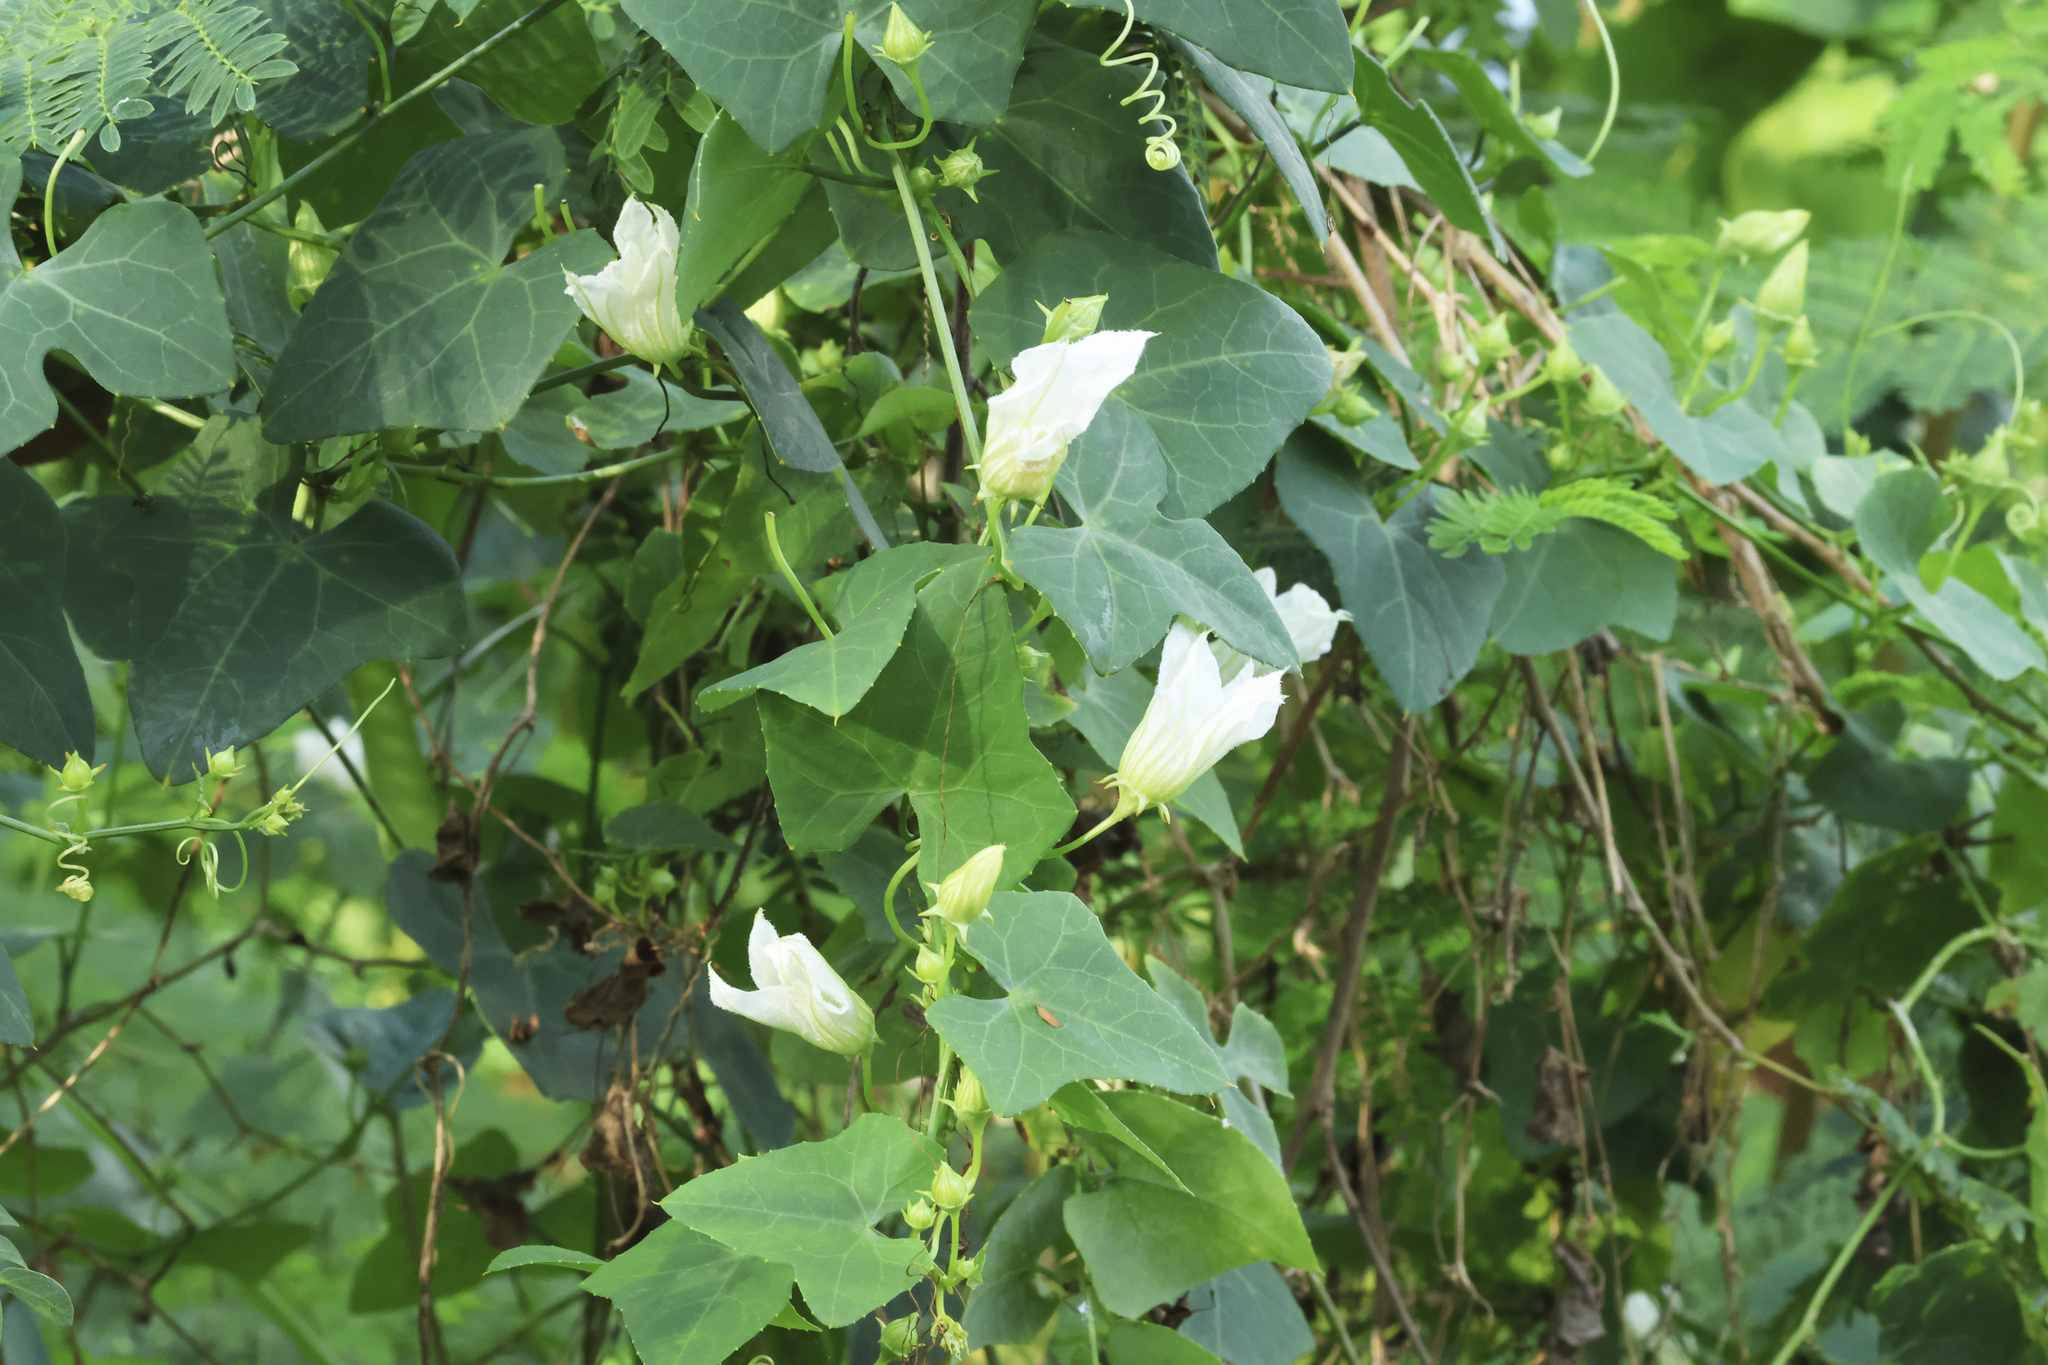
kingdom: Plantae
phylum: Tracheophyta
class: Magnoliopsida
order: Cucurbitales
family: Cucurbitaceae
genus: Coccinia
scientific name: Coccinia grandis
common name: Ivy gourd
